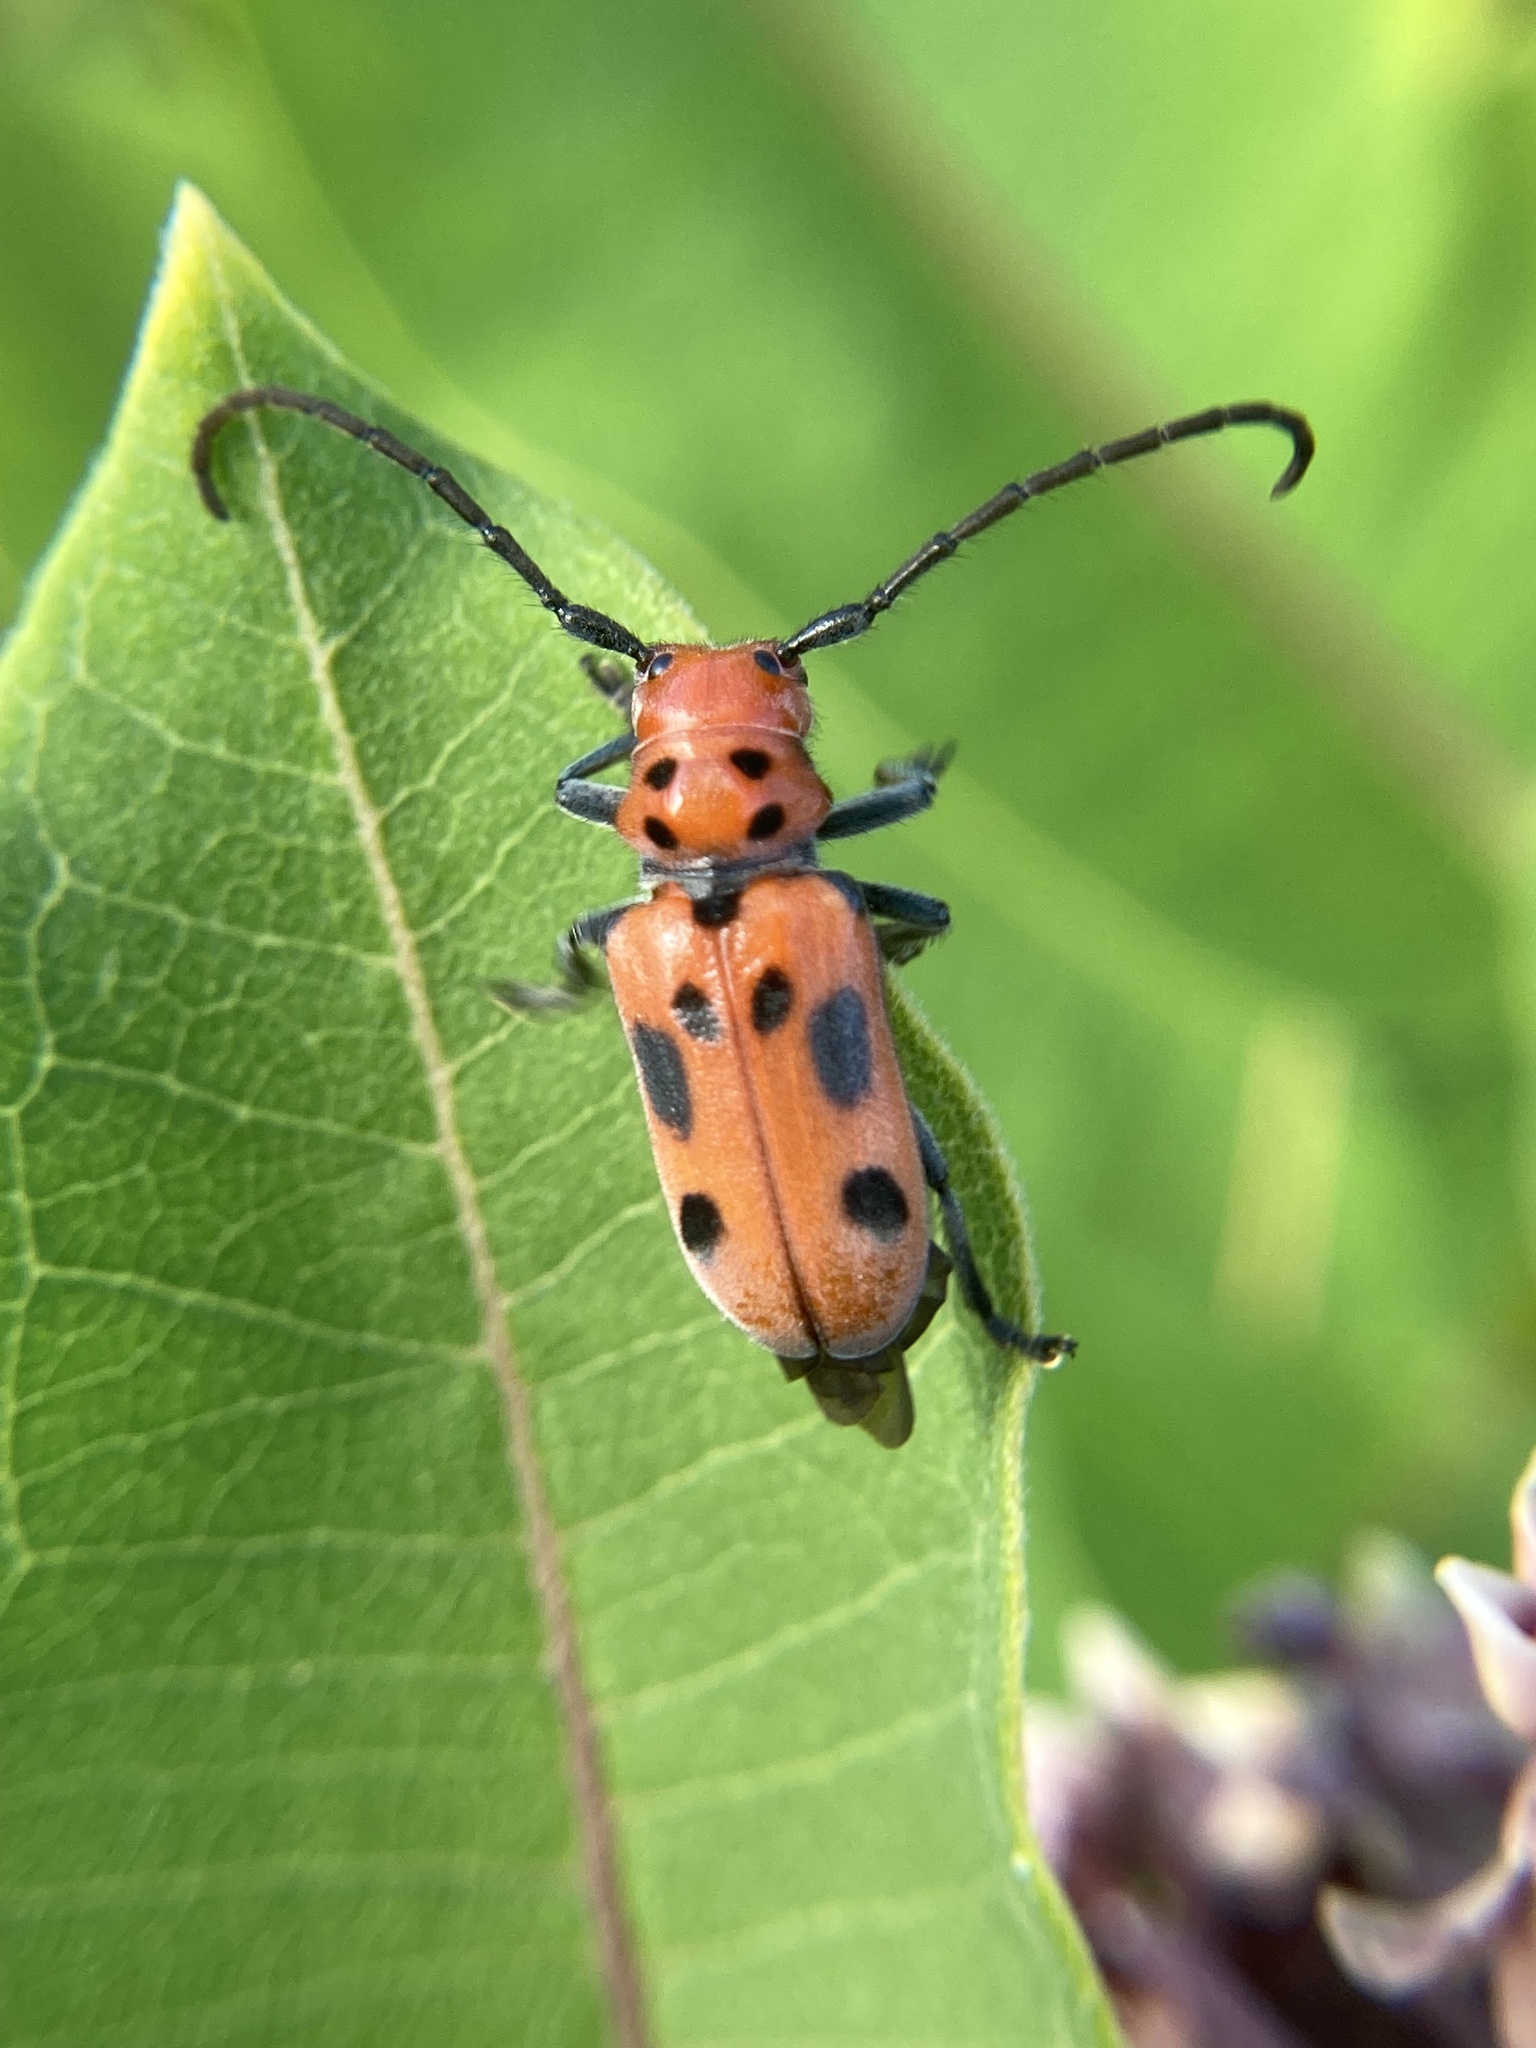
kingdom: Animalia
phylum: Arthropoda
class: Insecta
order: Coleoptera
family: Cerambycidae
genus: Tetraopes
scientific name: Tetraopes tetrophthalmus
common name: Red milkweed beetle
